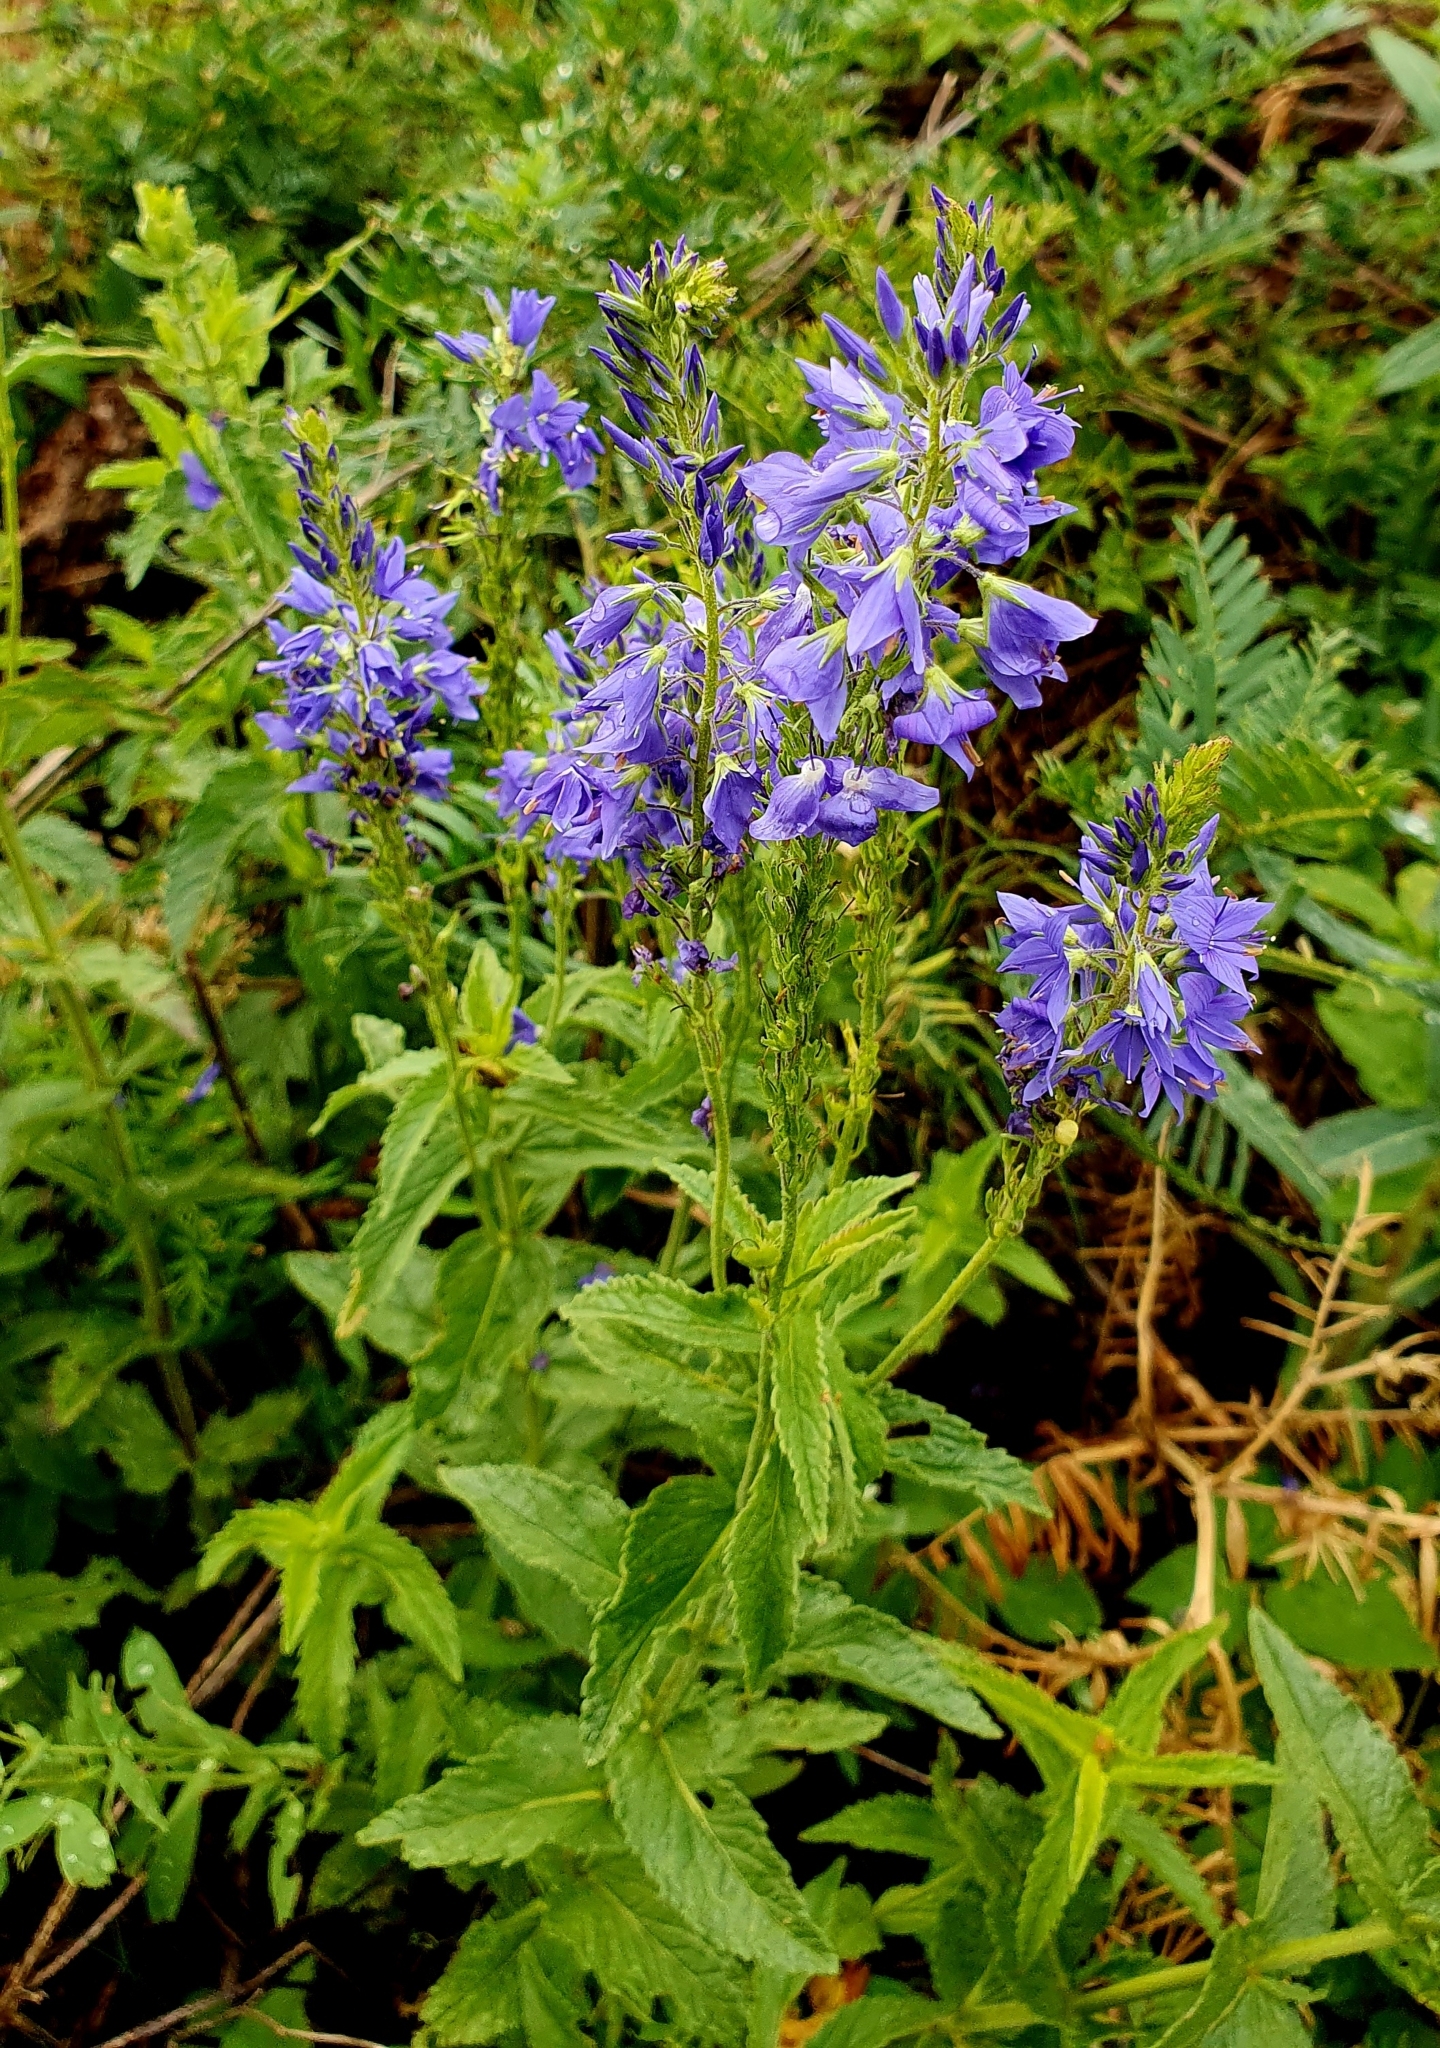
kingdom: Plantae
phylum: Tracheophyta
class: Magnoliopsida
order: Lamiales
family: Plantaginaceae
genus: Veronica
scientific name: Veronica teucrium
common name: Large speedwell
